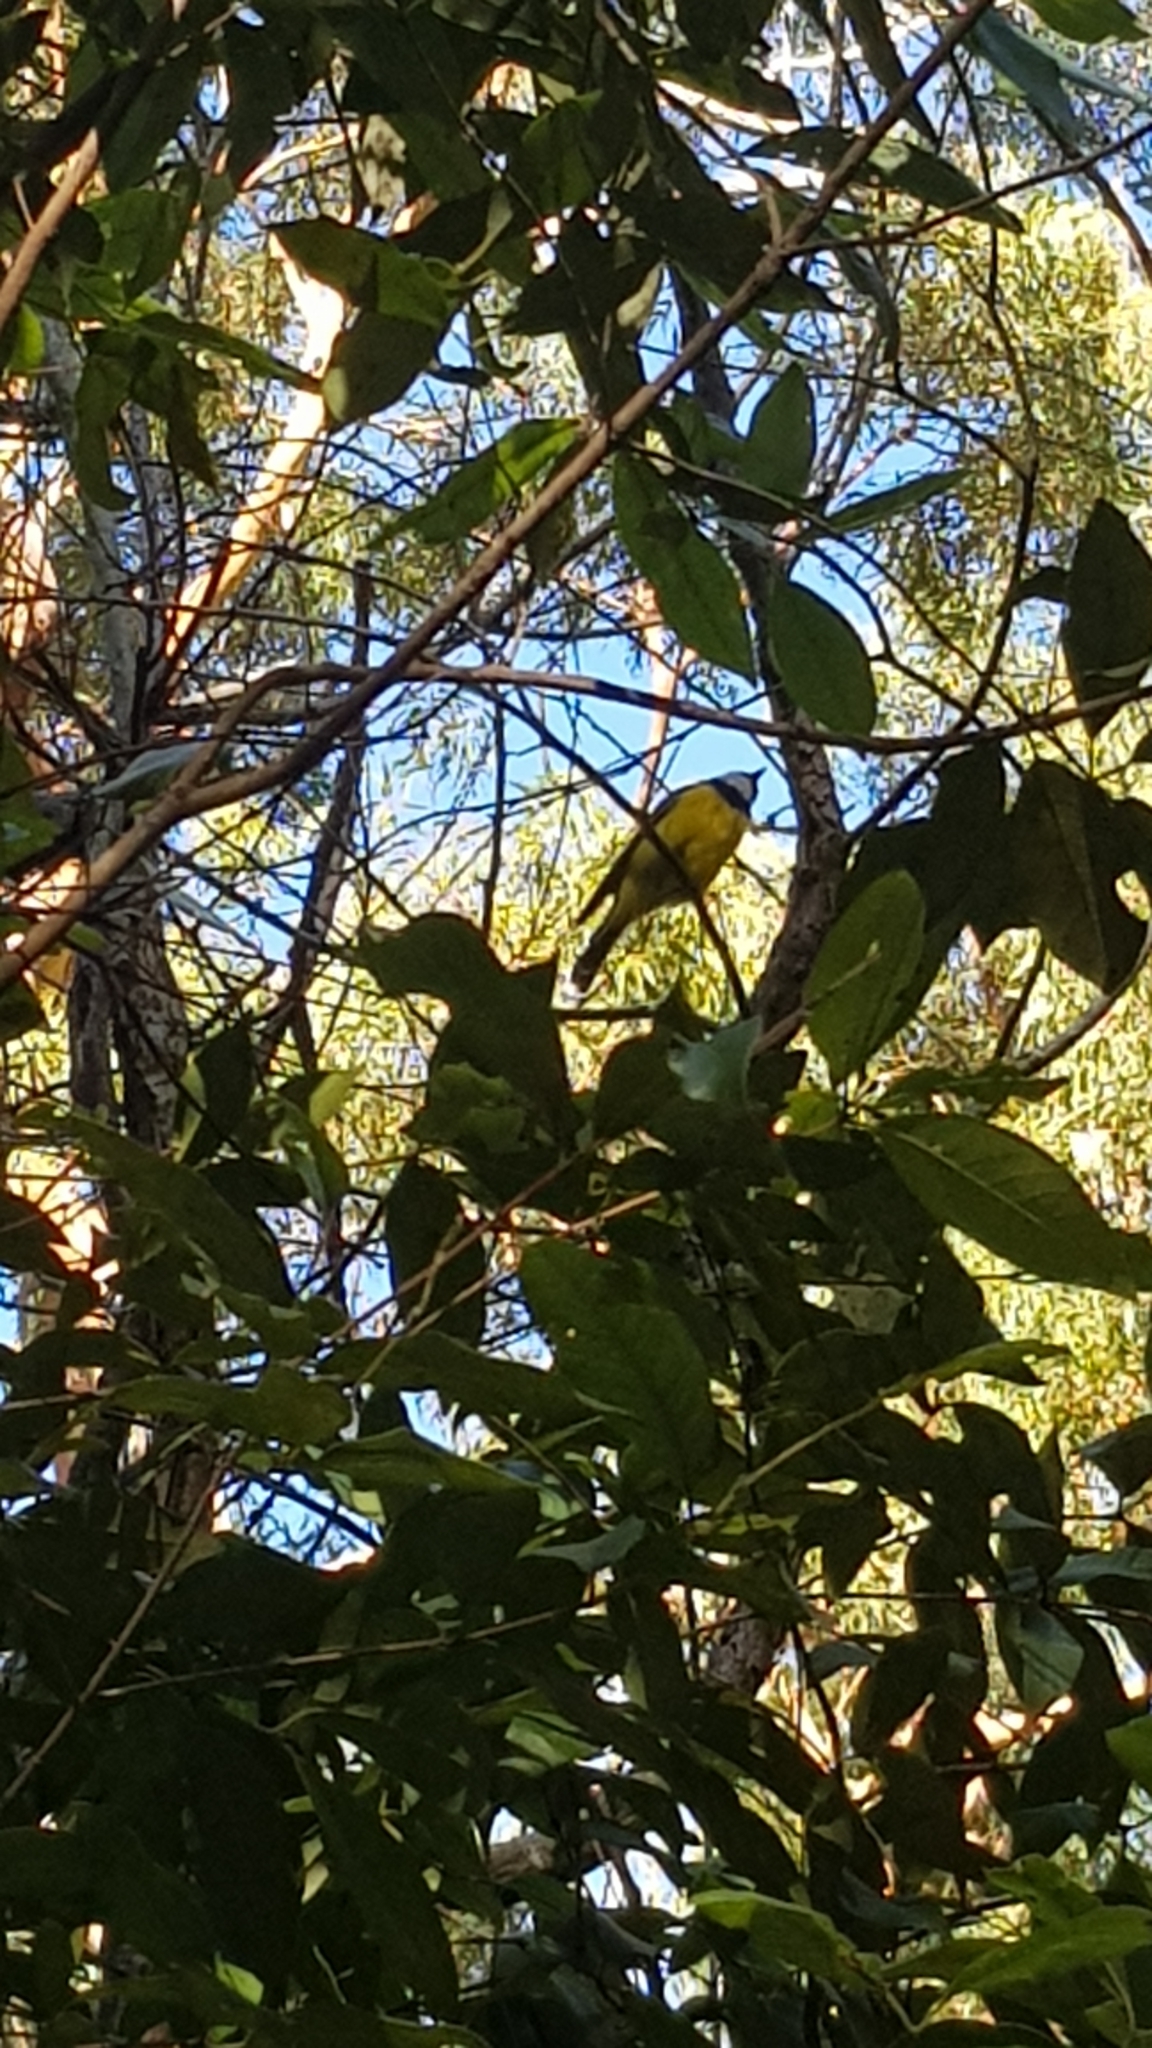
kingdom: Animalia
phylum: Chordata
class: Aves
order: Passeriformes
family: Pachycephalidae
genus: Pachycephala
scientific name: Pachycephala pectoralis
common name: Australian golden whistler
